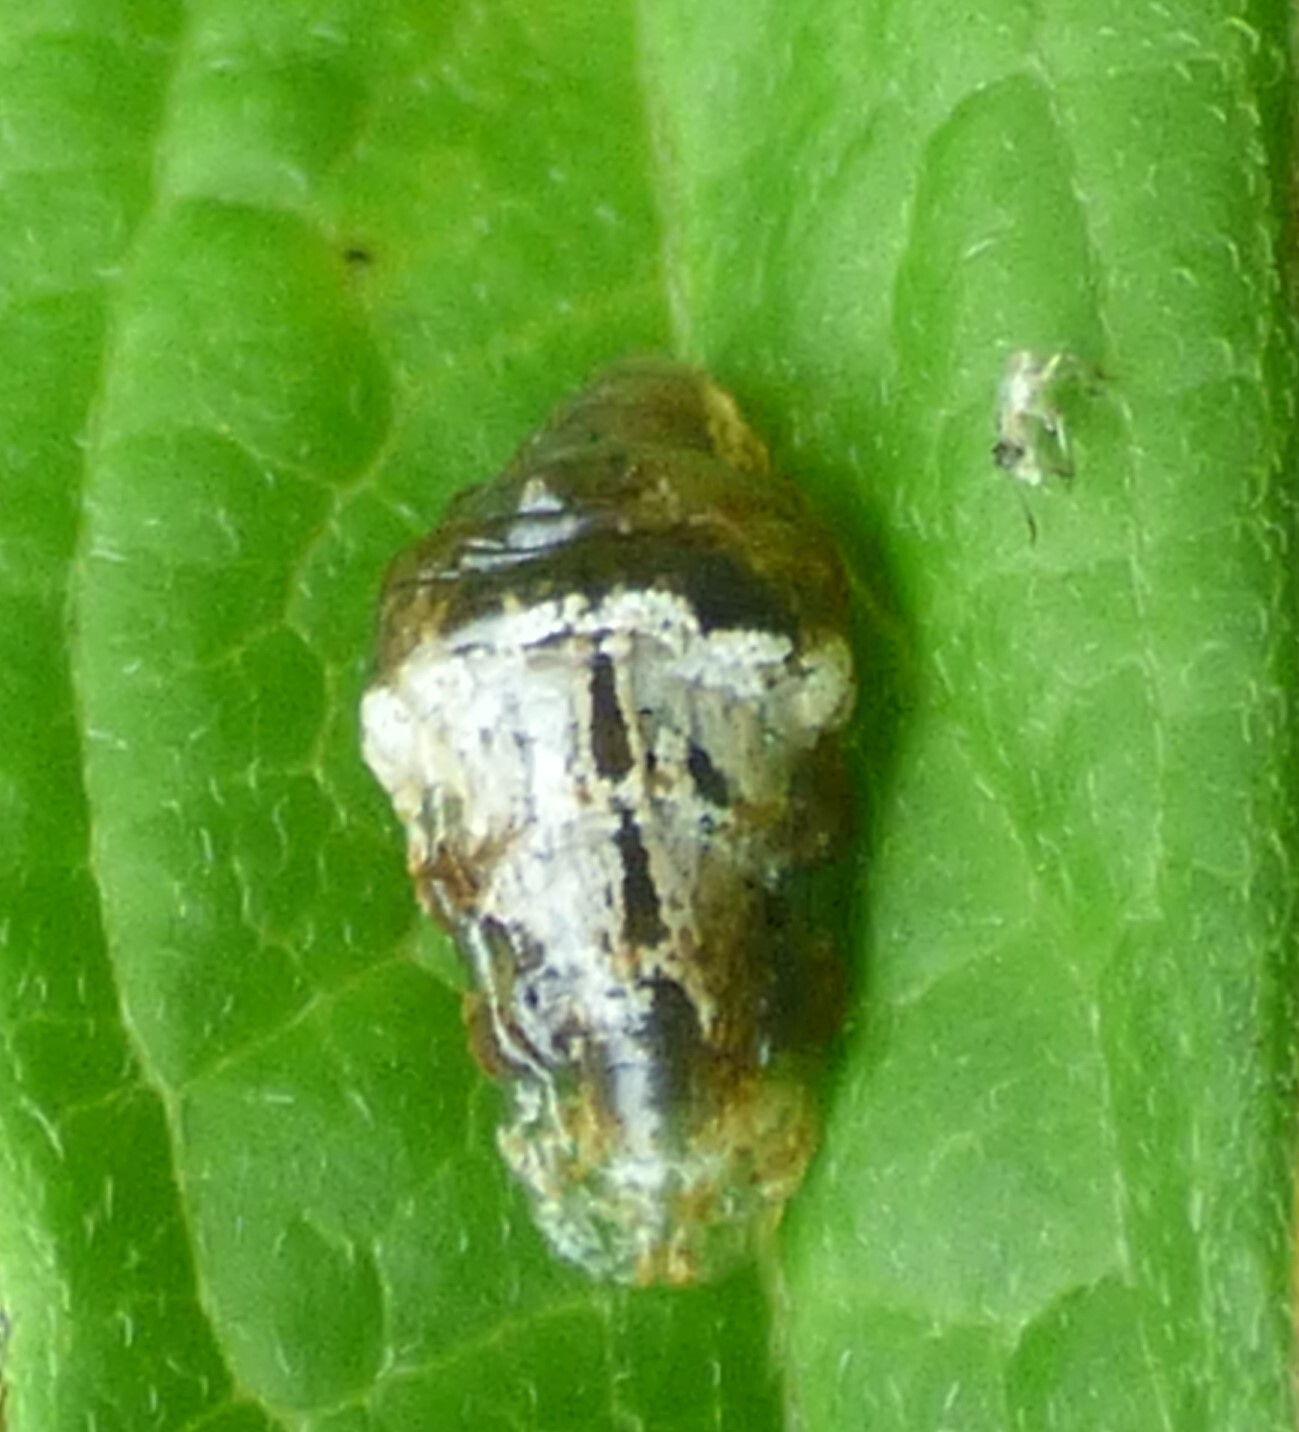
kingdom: Animalia
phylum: Arthropoda
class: Insecta
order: Diptera
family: Syrphidae
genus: Ocyptamus
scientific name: Ocyptamus fuscipennis
